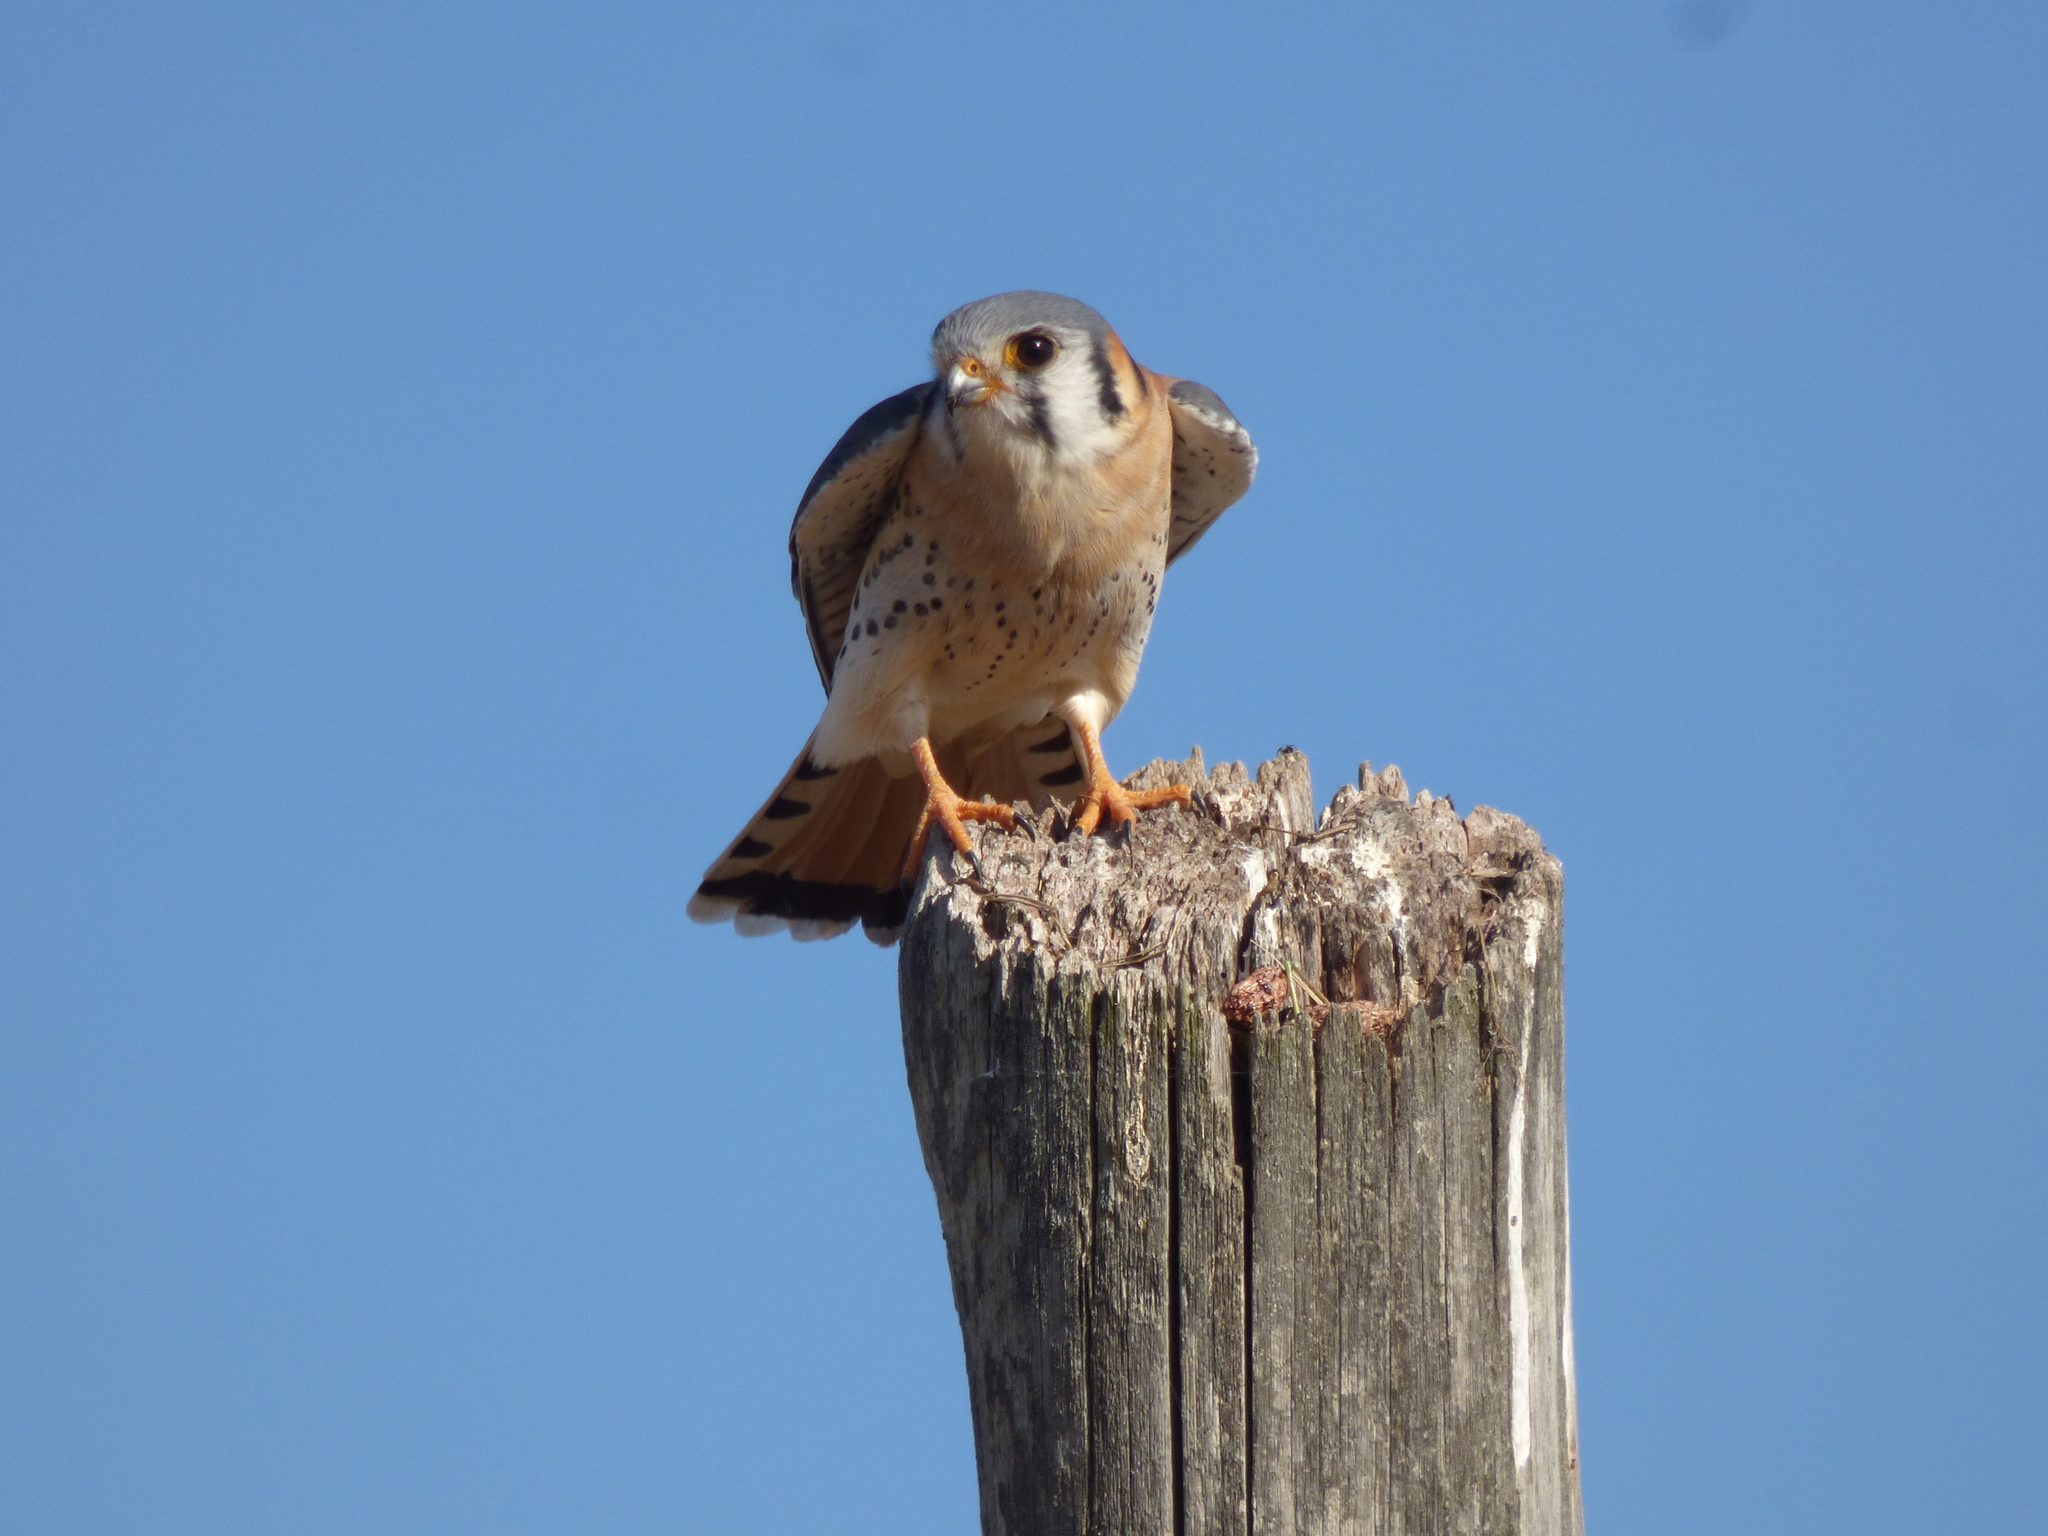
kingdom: Animalia
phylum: Chordata
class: Aves
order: Falconiformes
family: Falconidae
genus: Falco
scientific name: Falco sparverius
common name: American kestrel
